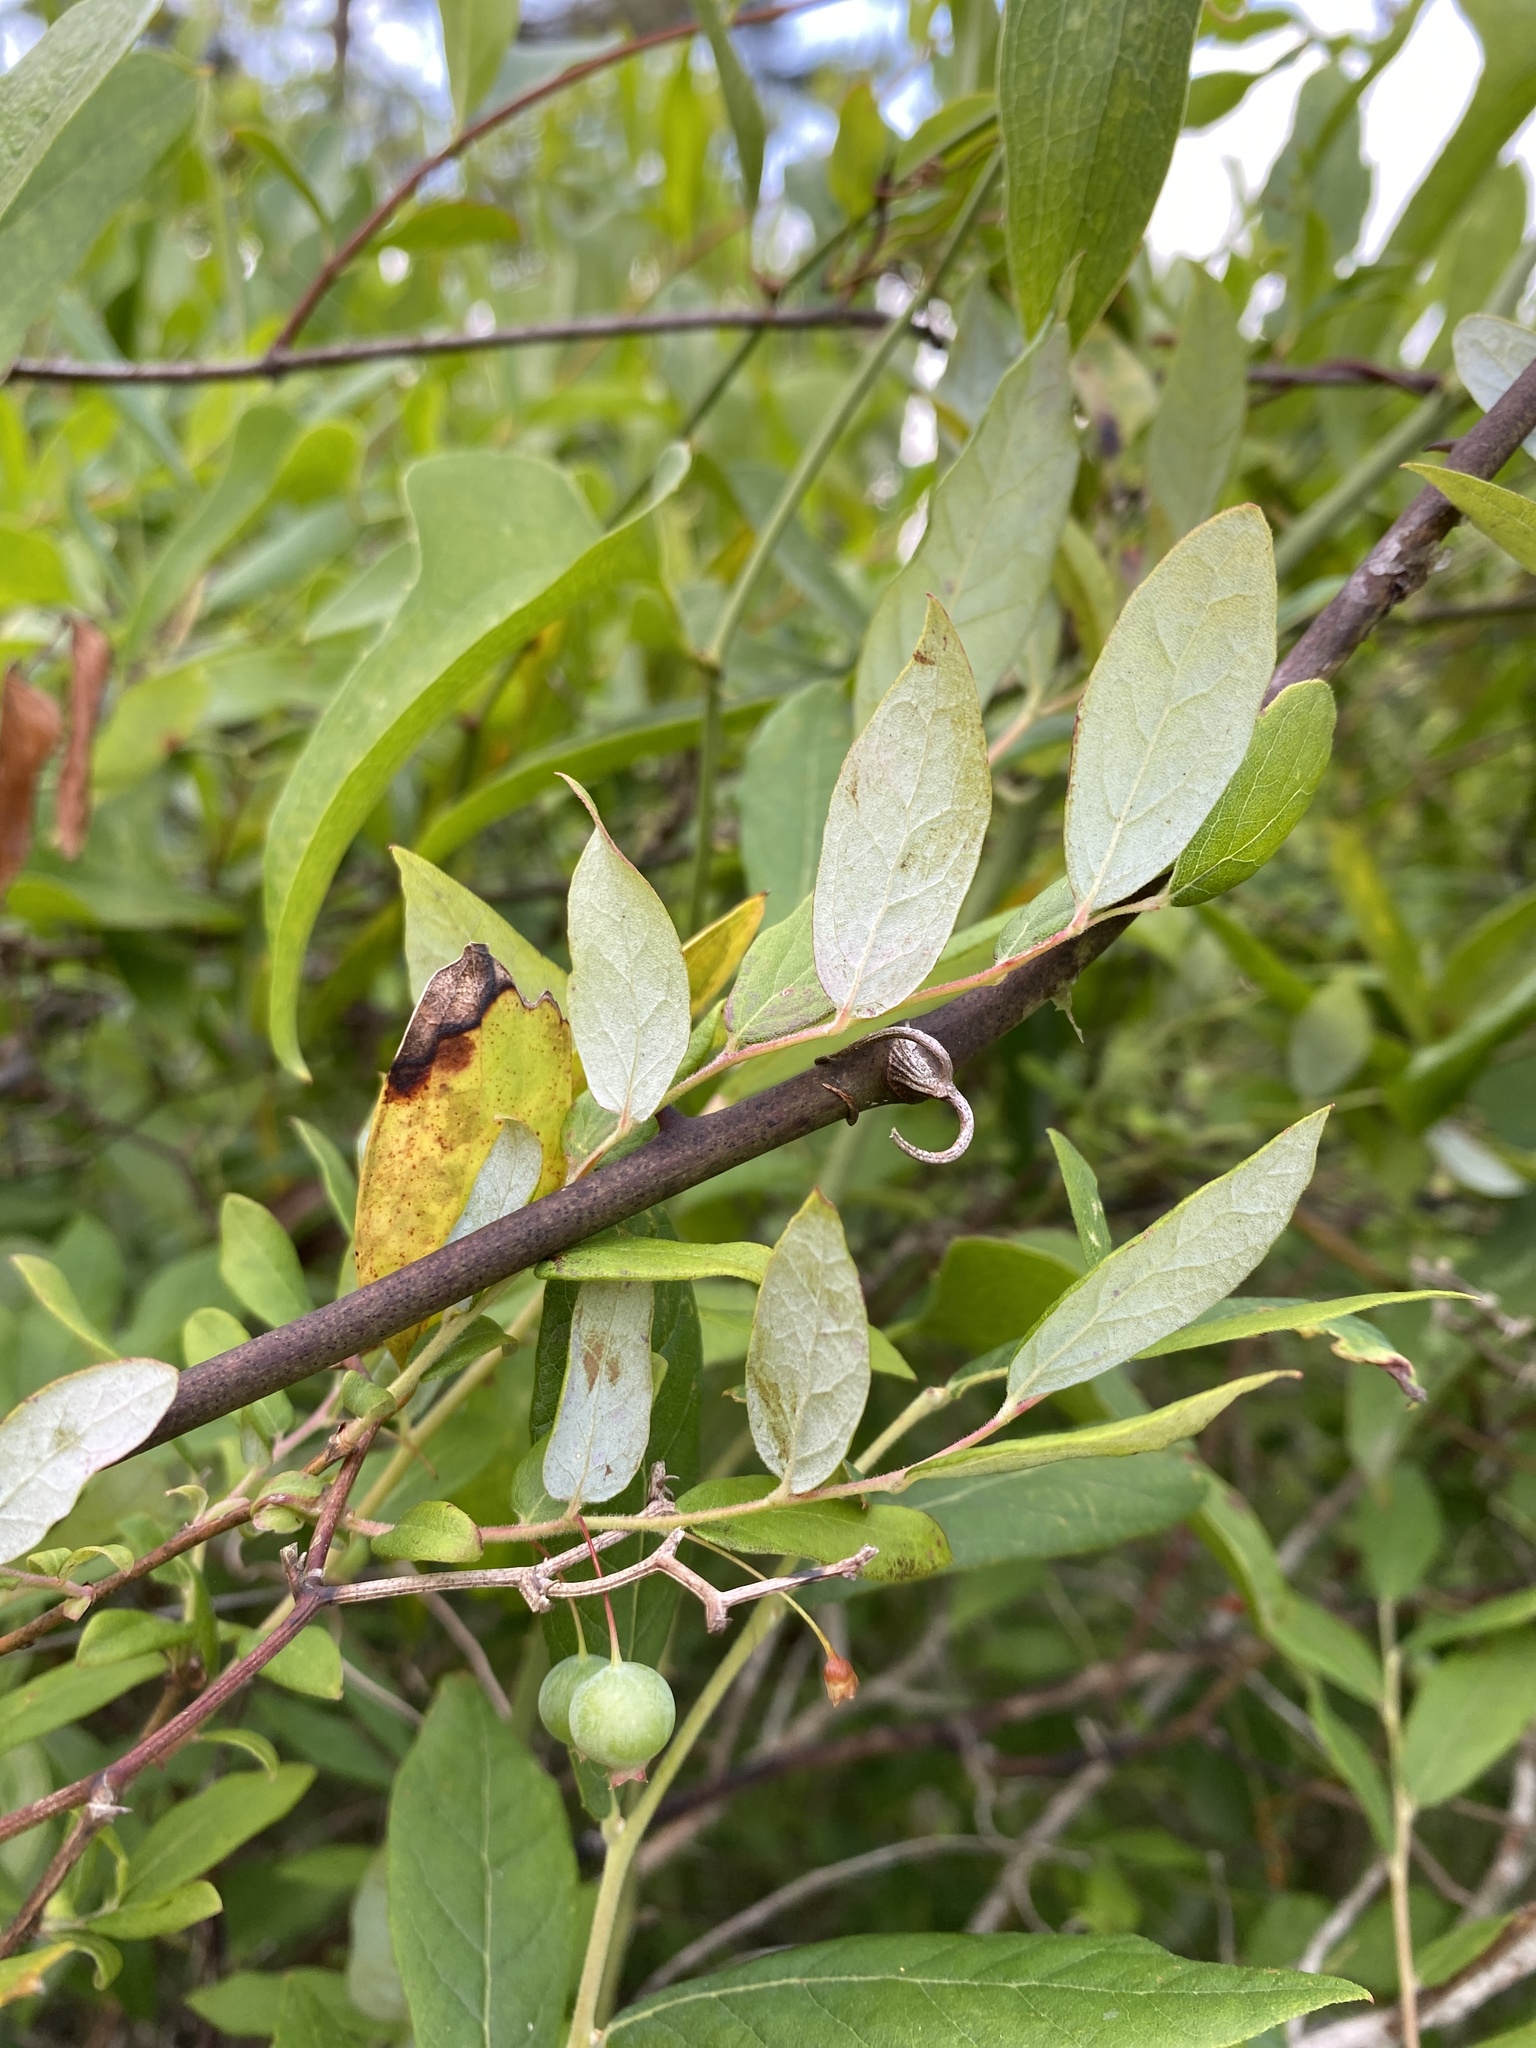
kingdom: Plantae
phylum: Tracheophyta
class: Magnoliopsida
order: Ericales
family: Ericaceae
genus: Vaccinium
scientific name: Vaccinium stamineum
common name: Deerberry
